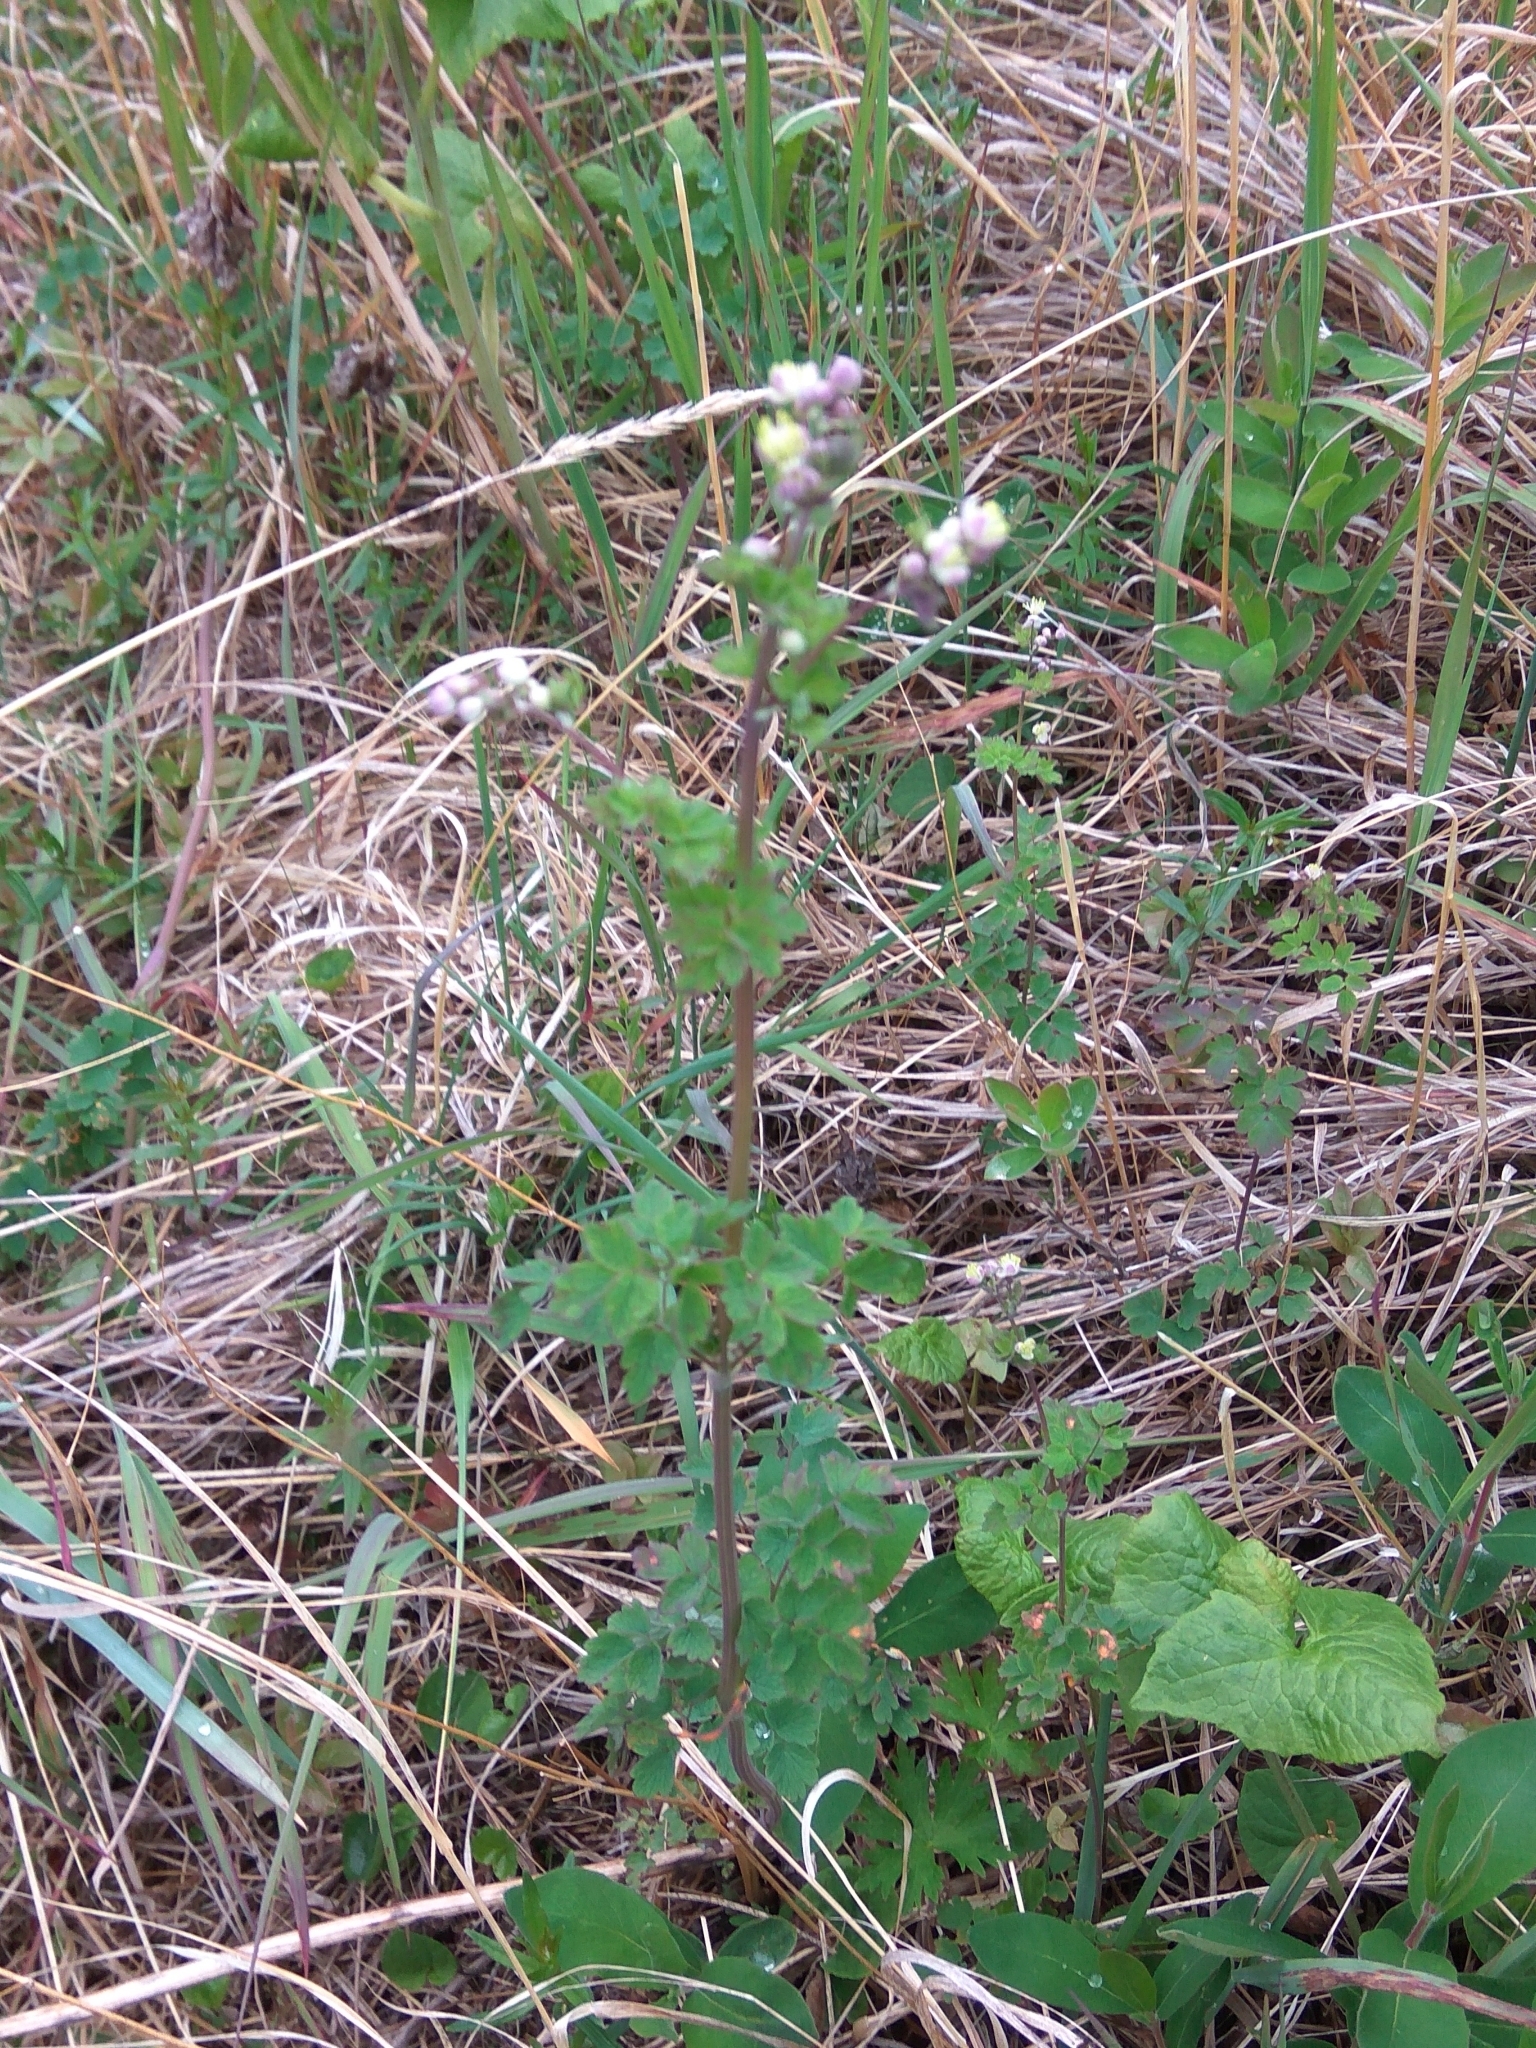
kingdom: Plantae
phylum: Tracheophyta
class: Magnoliopsida
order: Ranunculales
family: Ranunculaceae
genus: Thalictrum
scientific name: Thalictrum sparsiflorum
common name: Mountain meadow-rue
